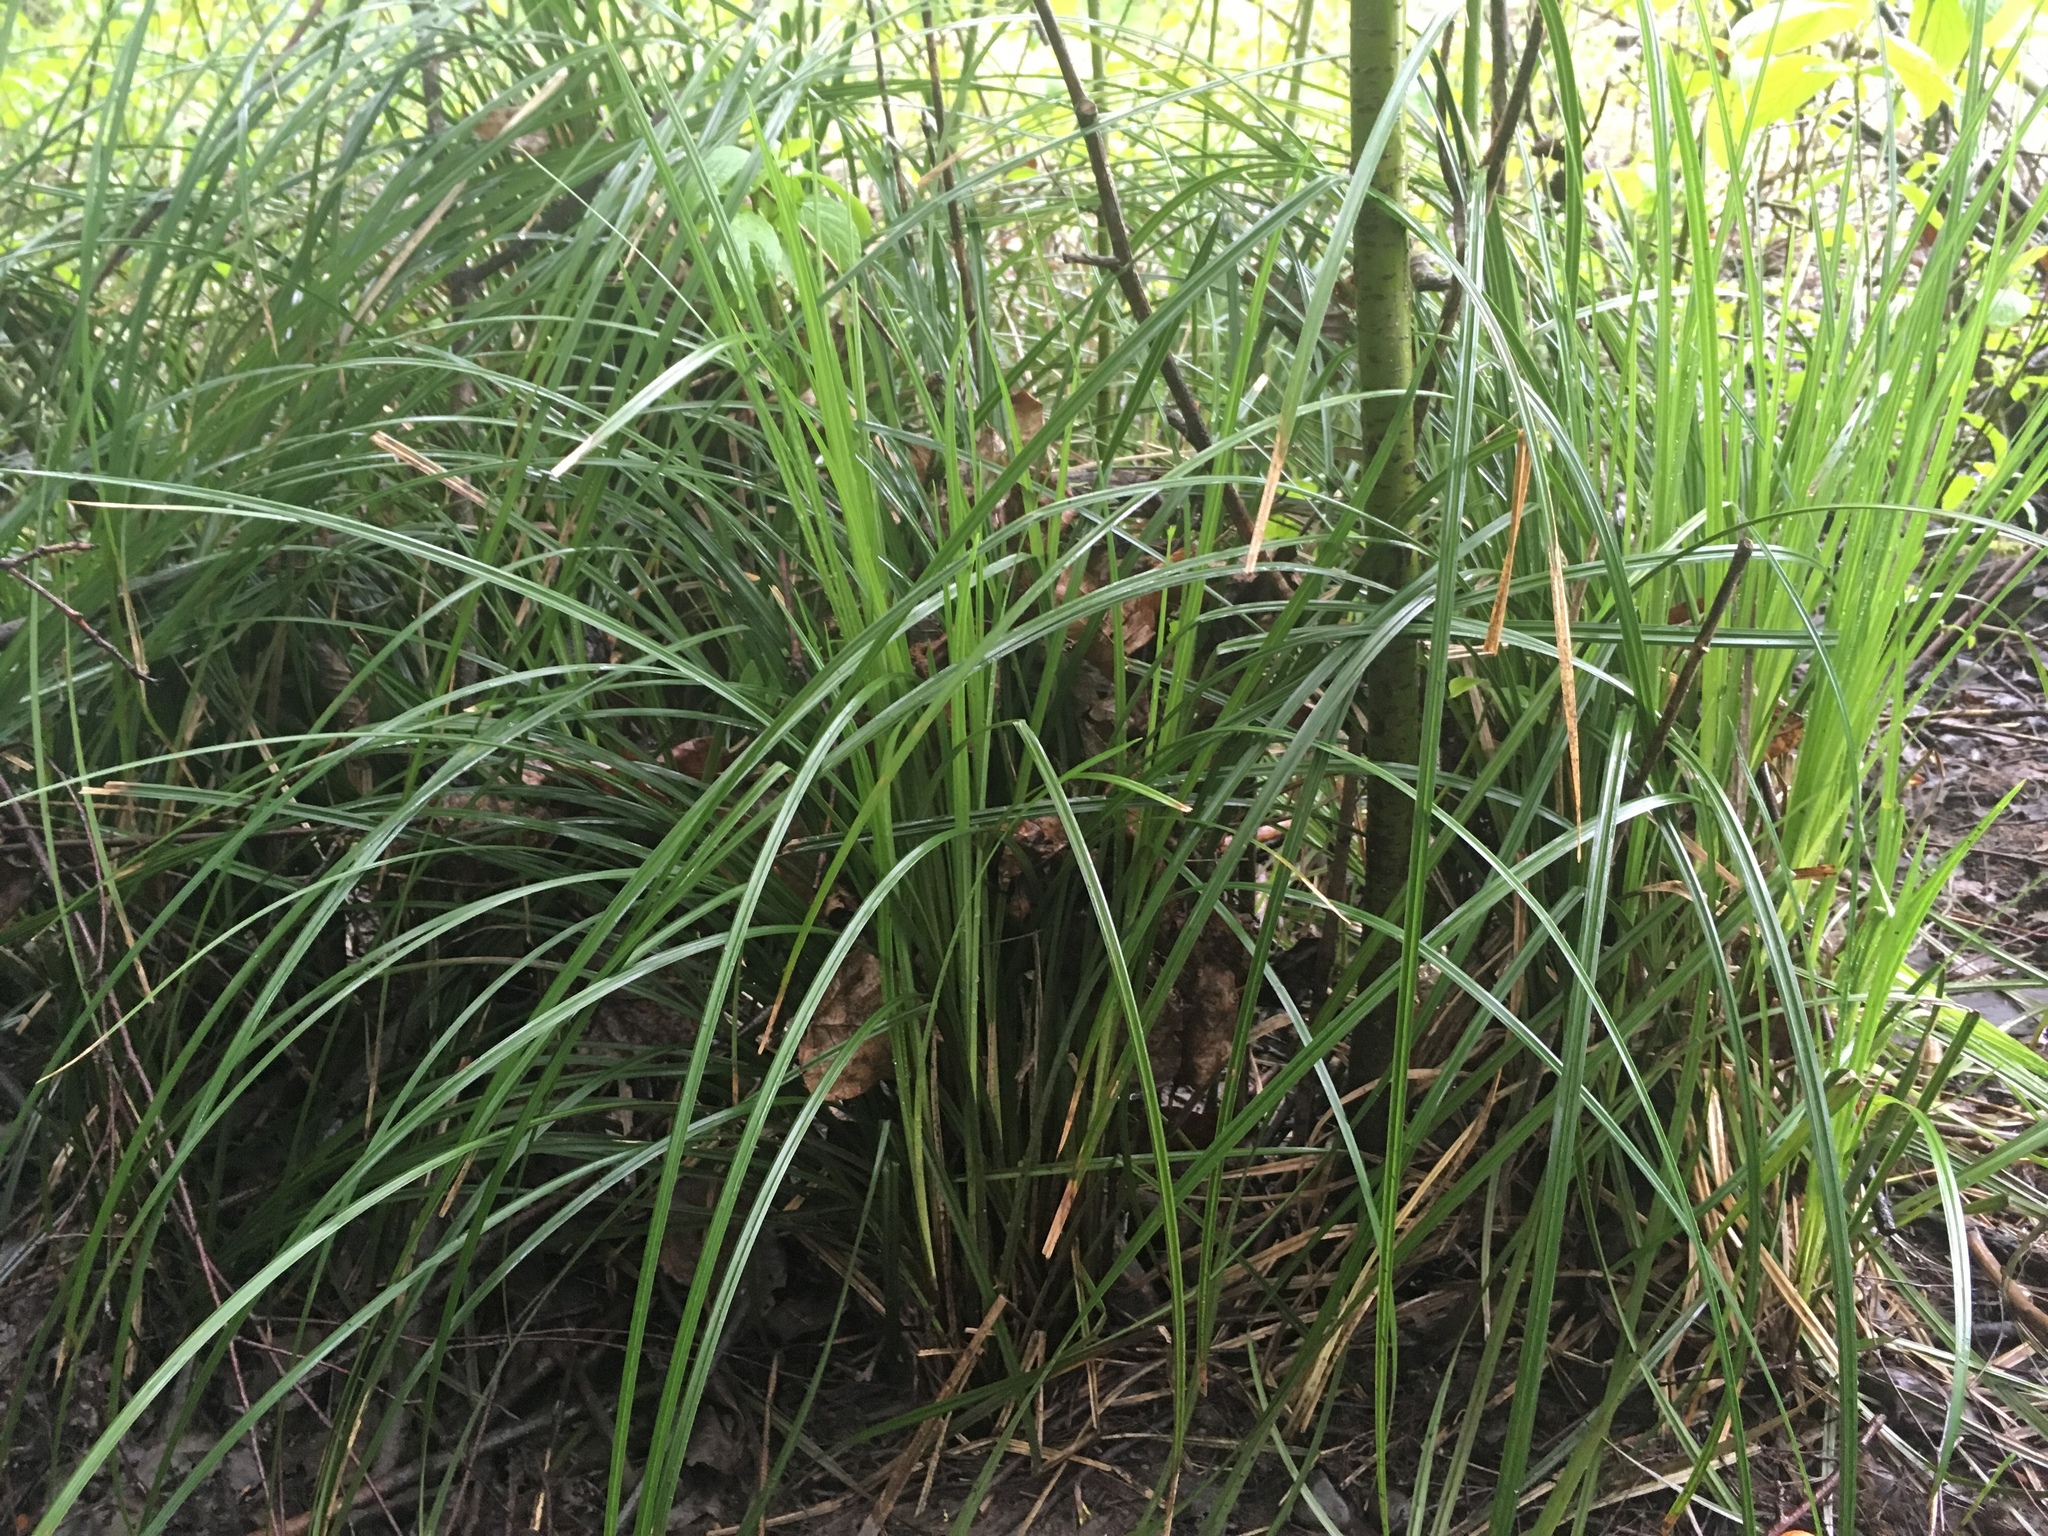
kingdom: Plantae
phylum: Tracheophyta
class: Liliopsida
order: Poales
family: Cyperaceae
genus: Carex
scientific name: Carex obnupta
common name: Slough sedge
